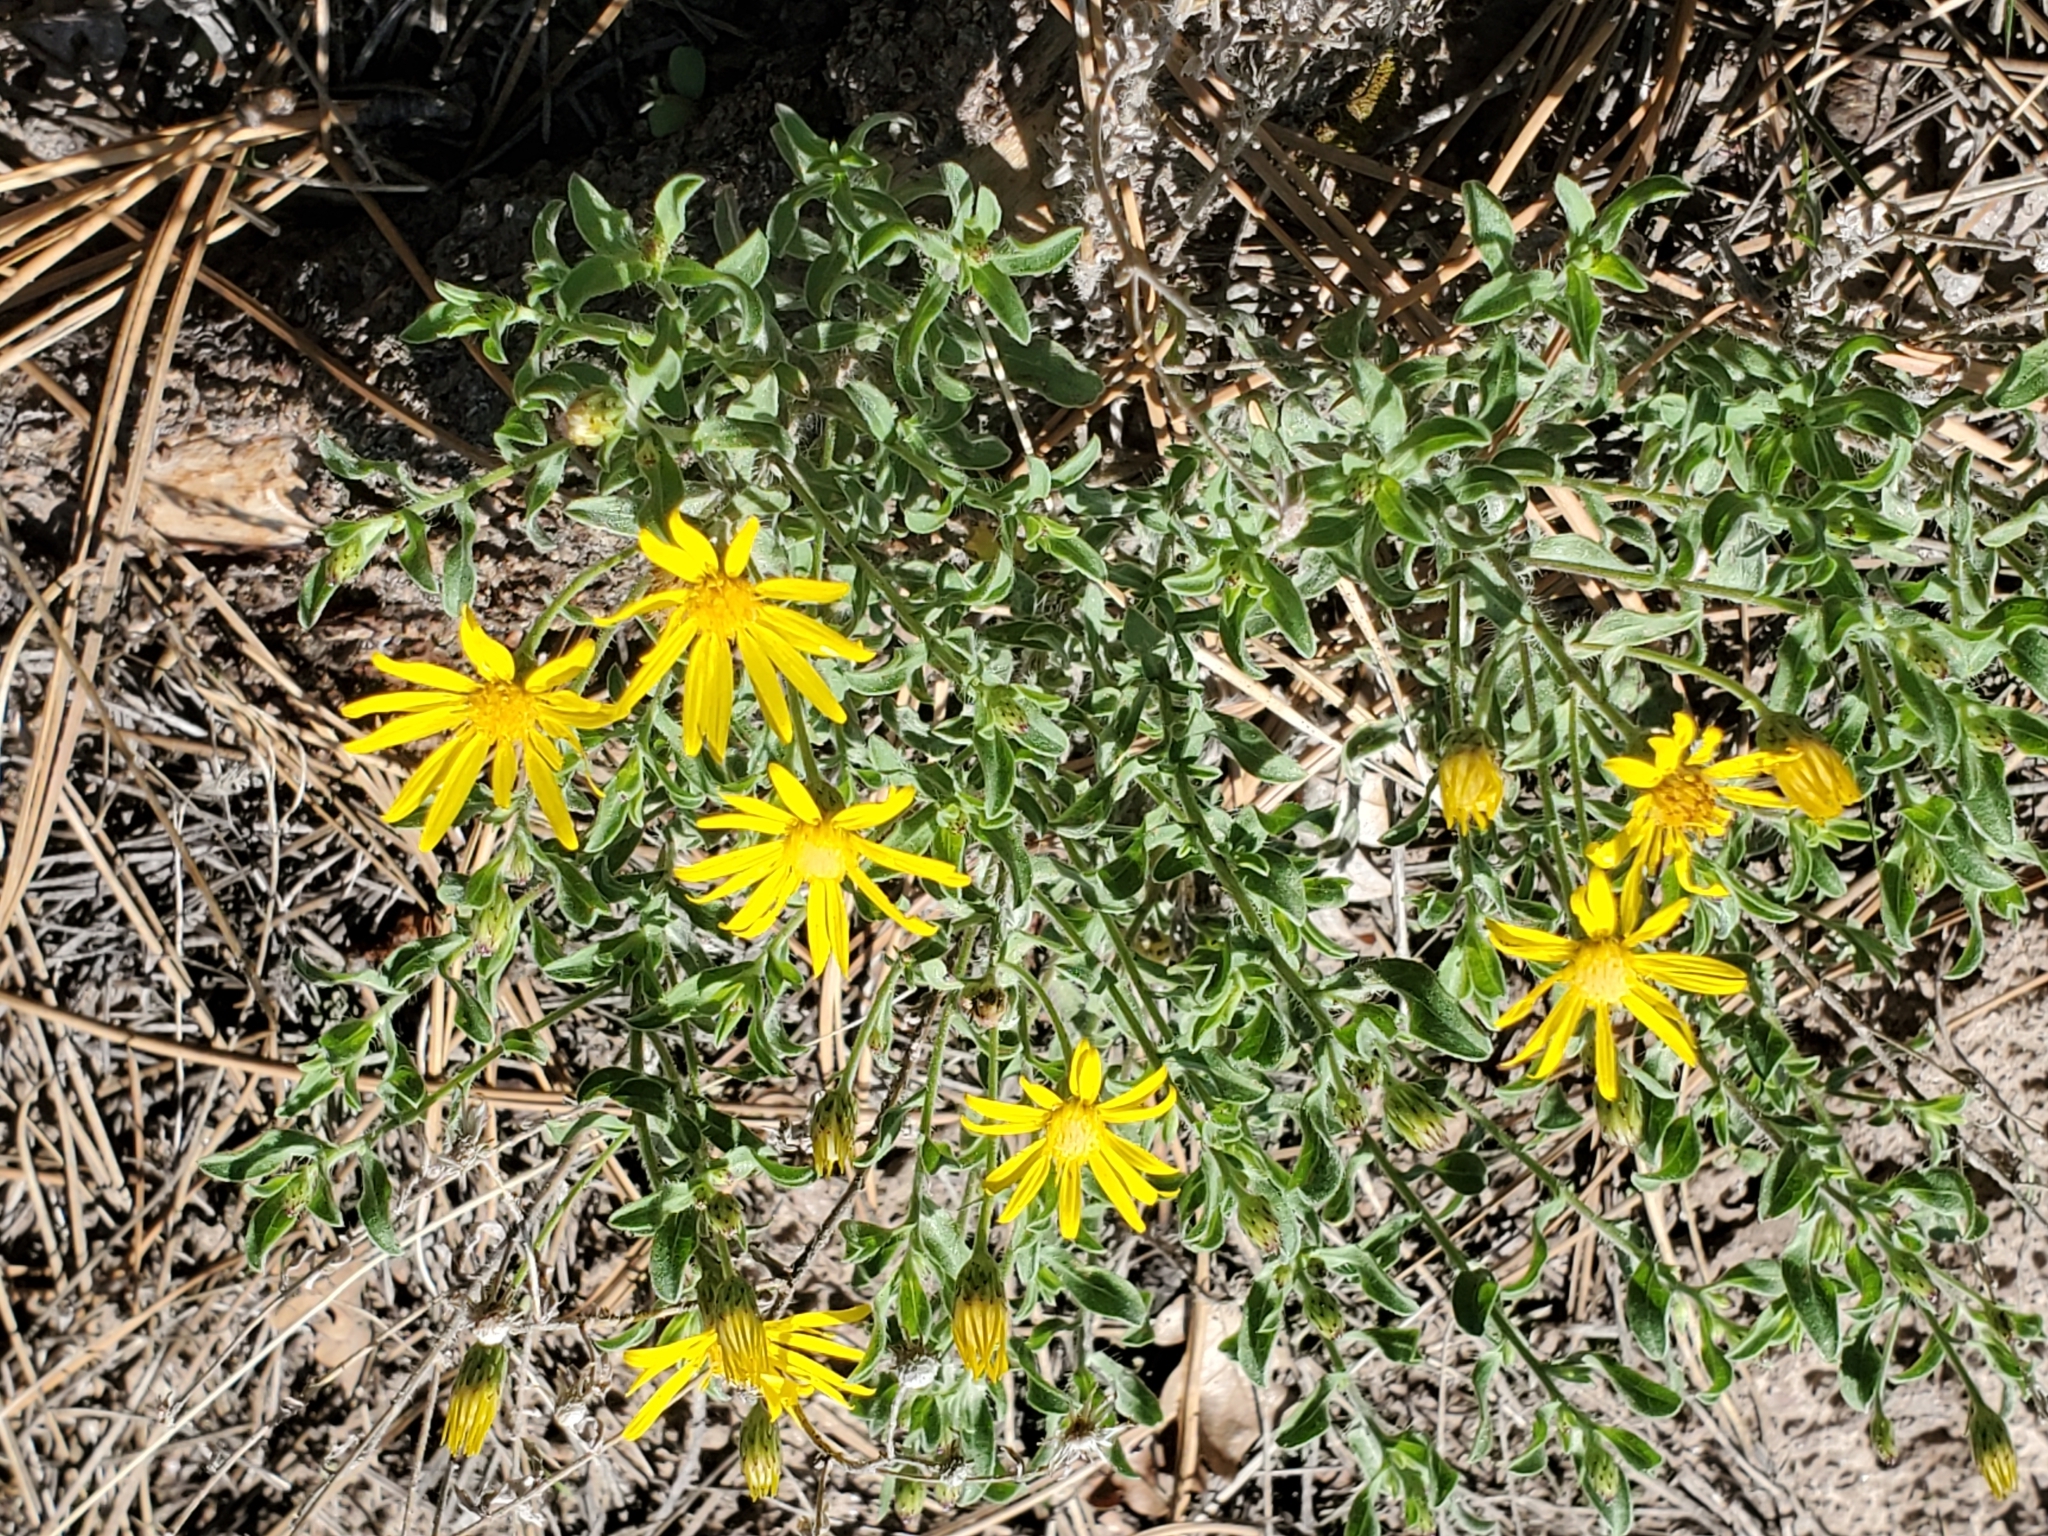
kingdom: Plantae
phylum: Tracheophyta
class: Magnoliopsida
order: Asterales
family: Asteraceae
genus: Heterotheca
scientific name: Heterotheca hirsutissima
